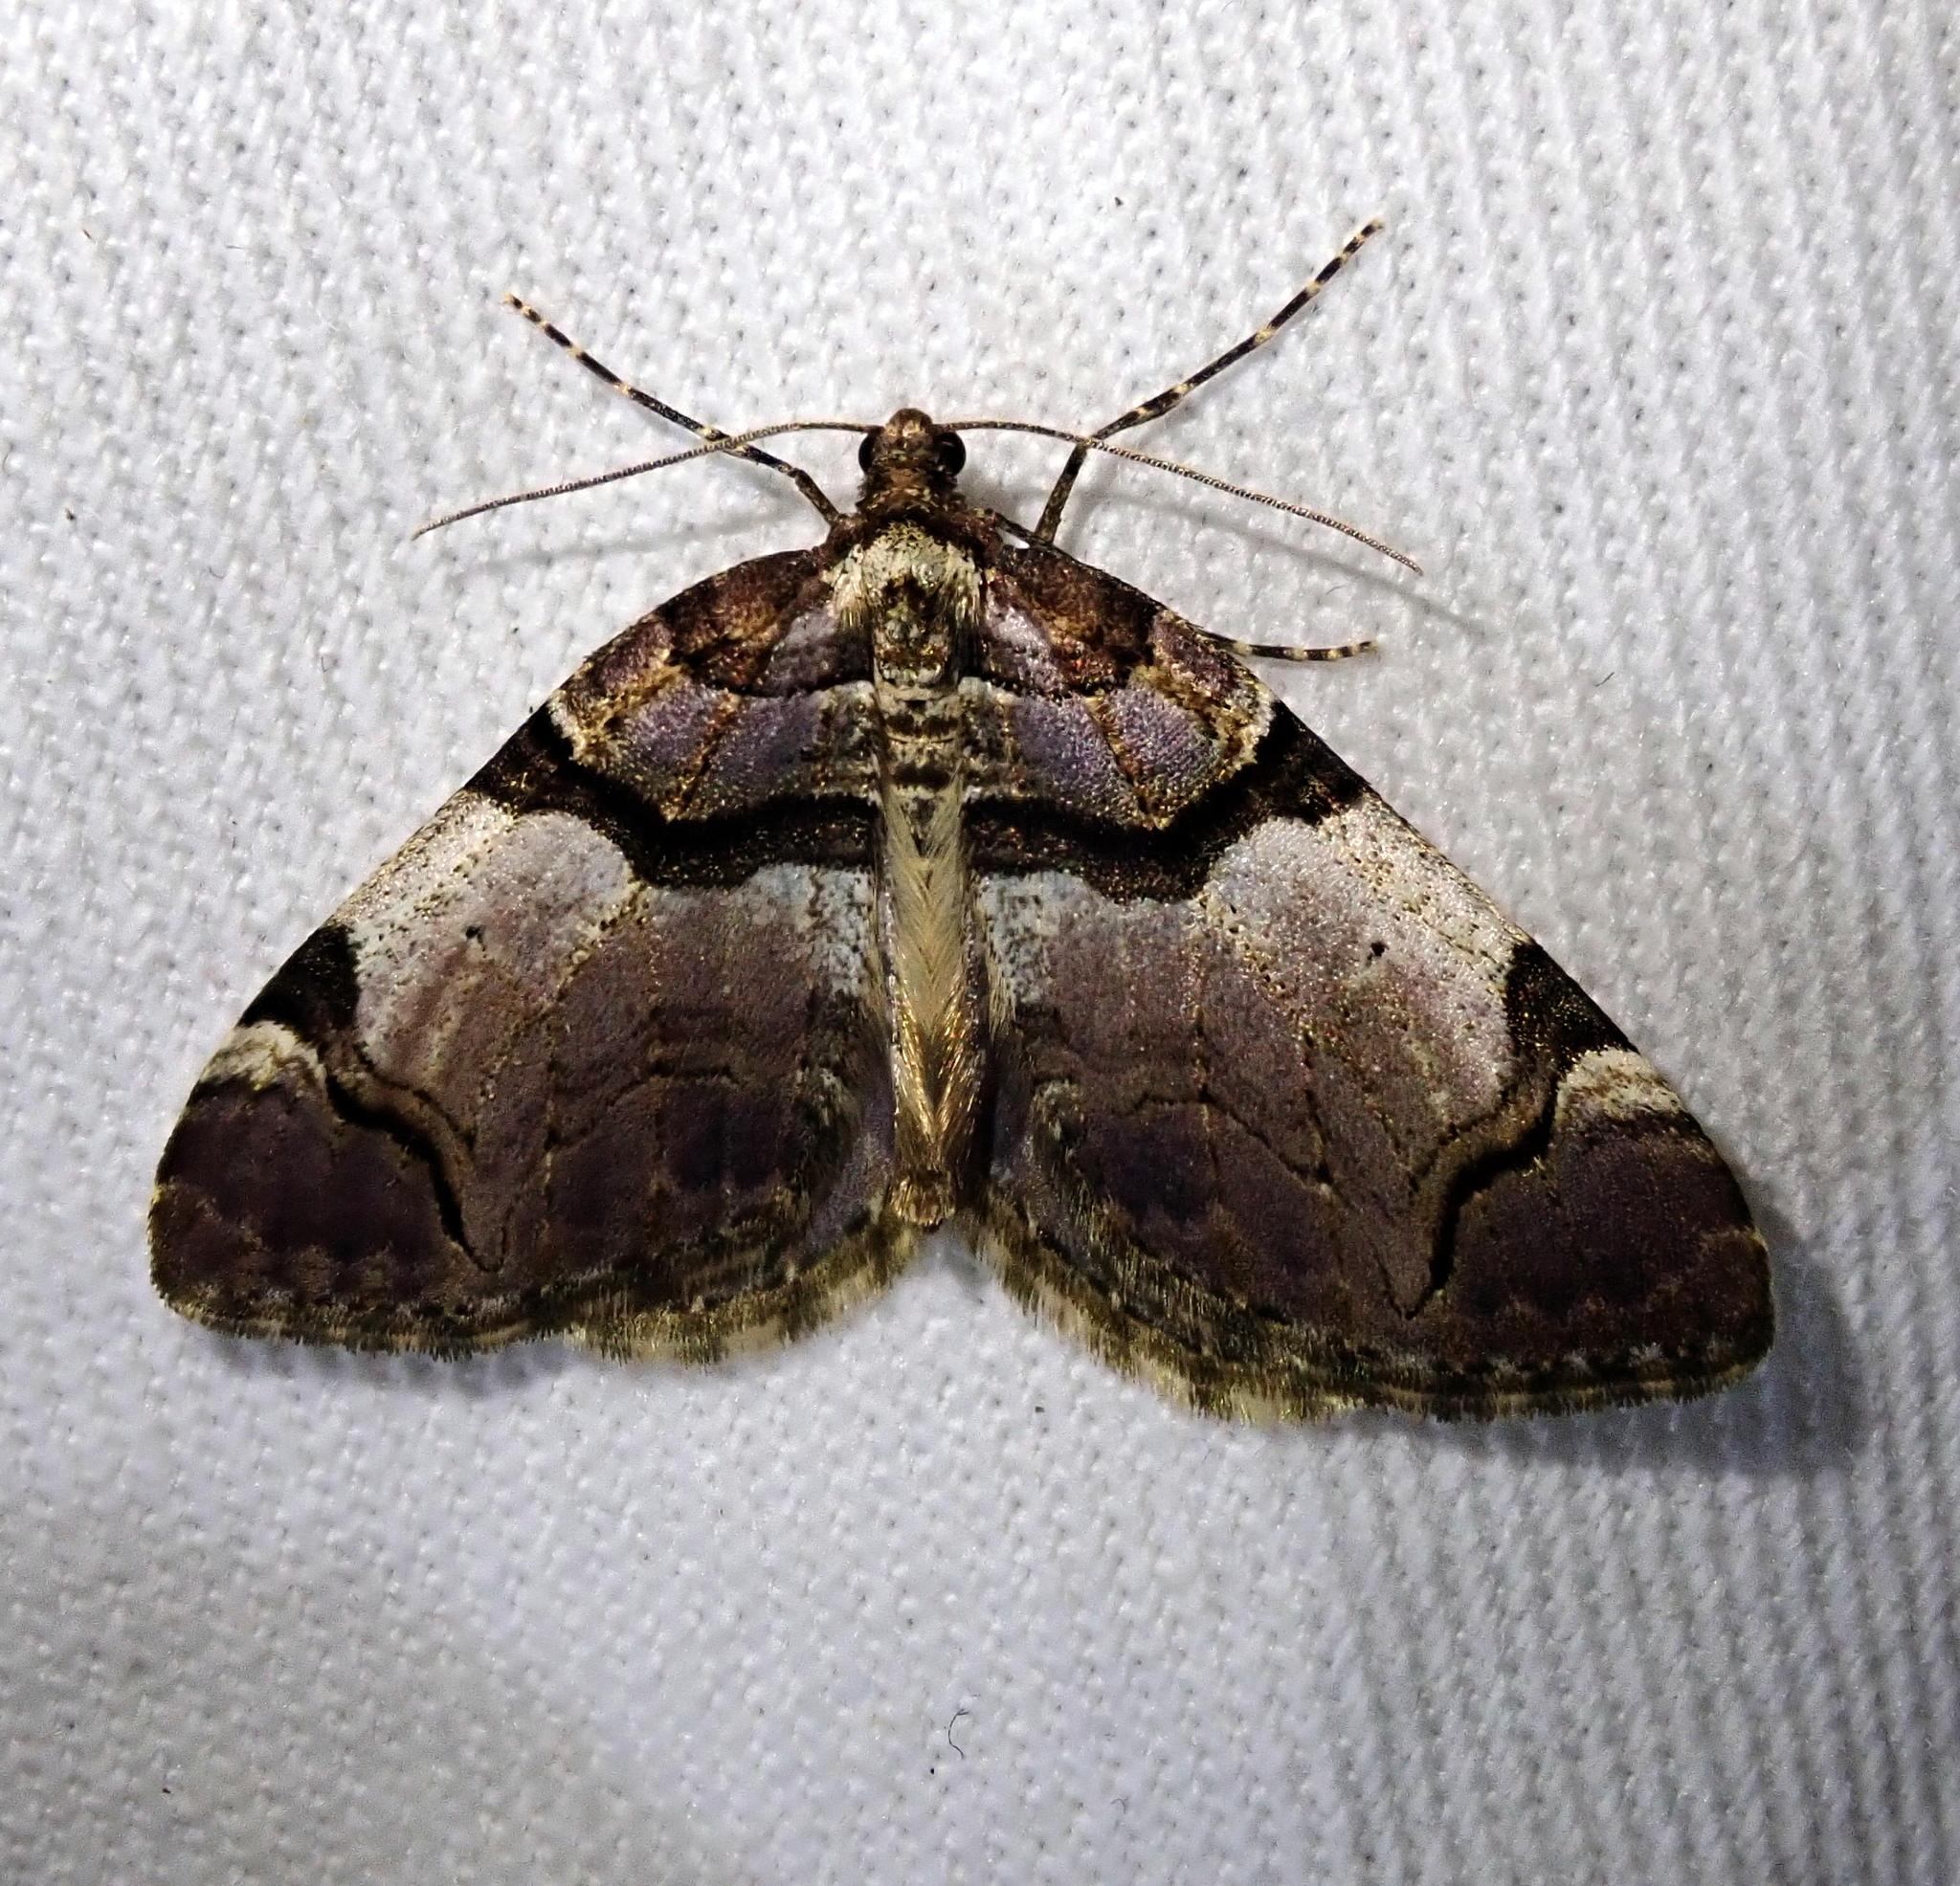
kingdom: Animalia
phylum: Arthropoda
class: Insecta
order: Lepidoptera
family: Geometridae
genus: Anticlea
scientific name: Anticlea derivata
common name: Streamer
